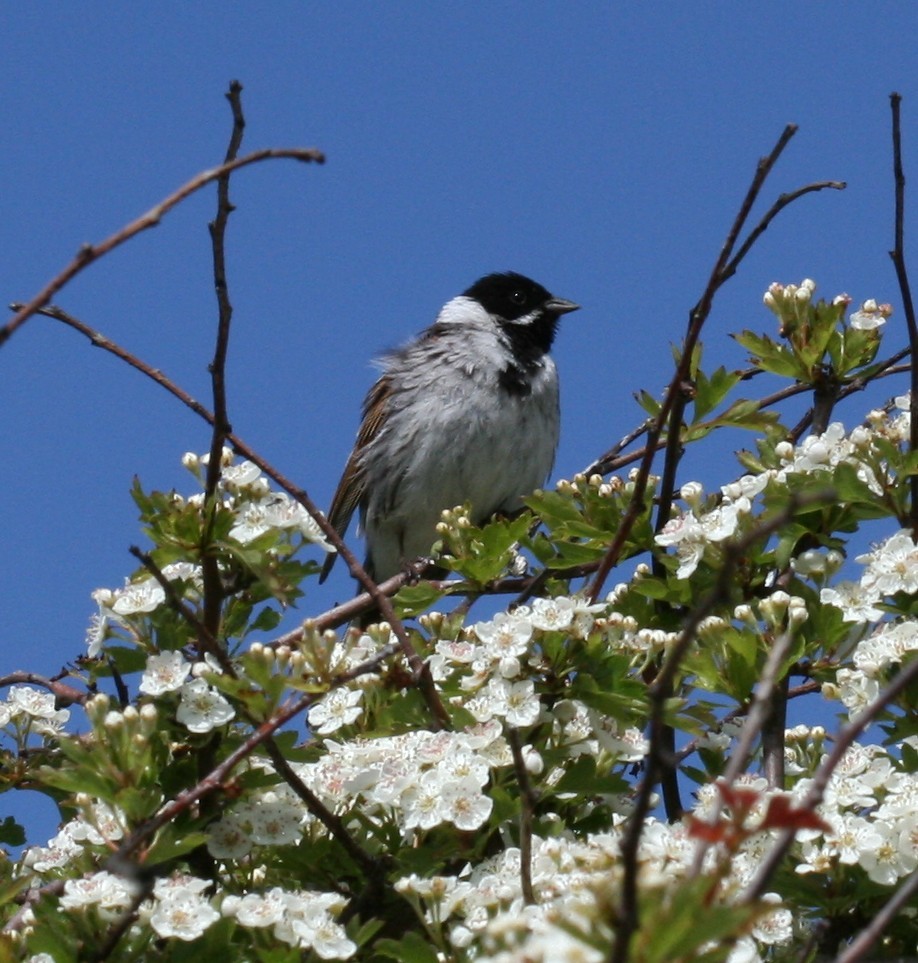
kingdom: Animalia
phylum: Chordata
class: Aves
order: Passeriformes
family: Emberizidae
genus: Emberiza
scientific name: Emberiza schoeniclus
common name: Reed bunting
